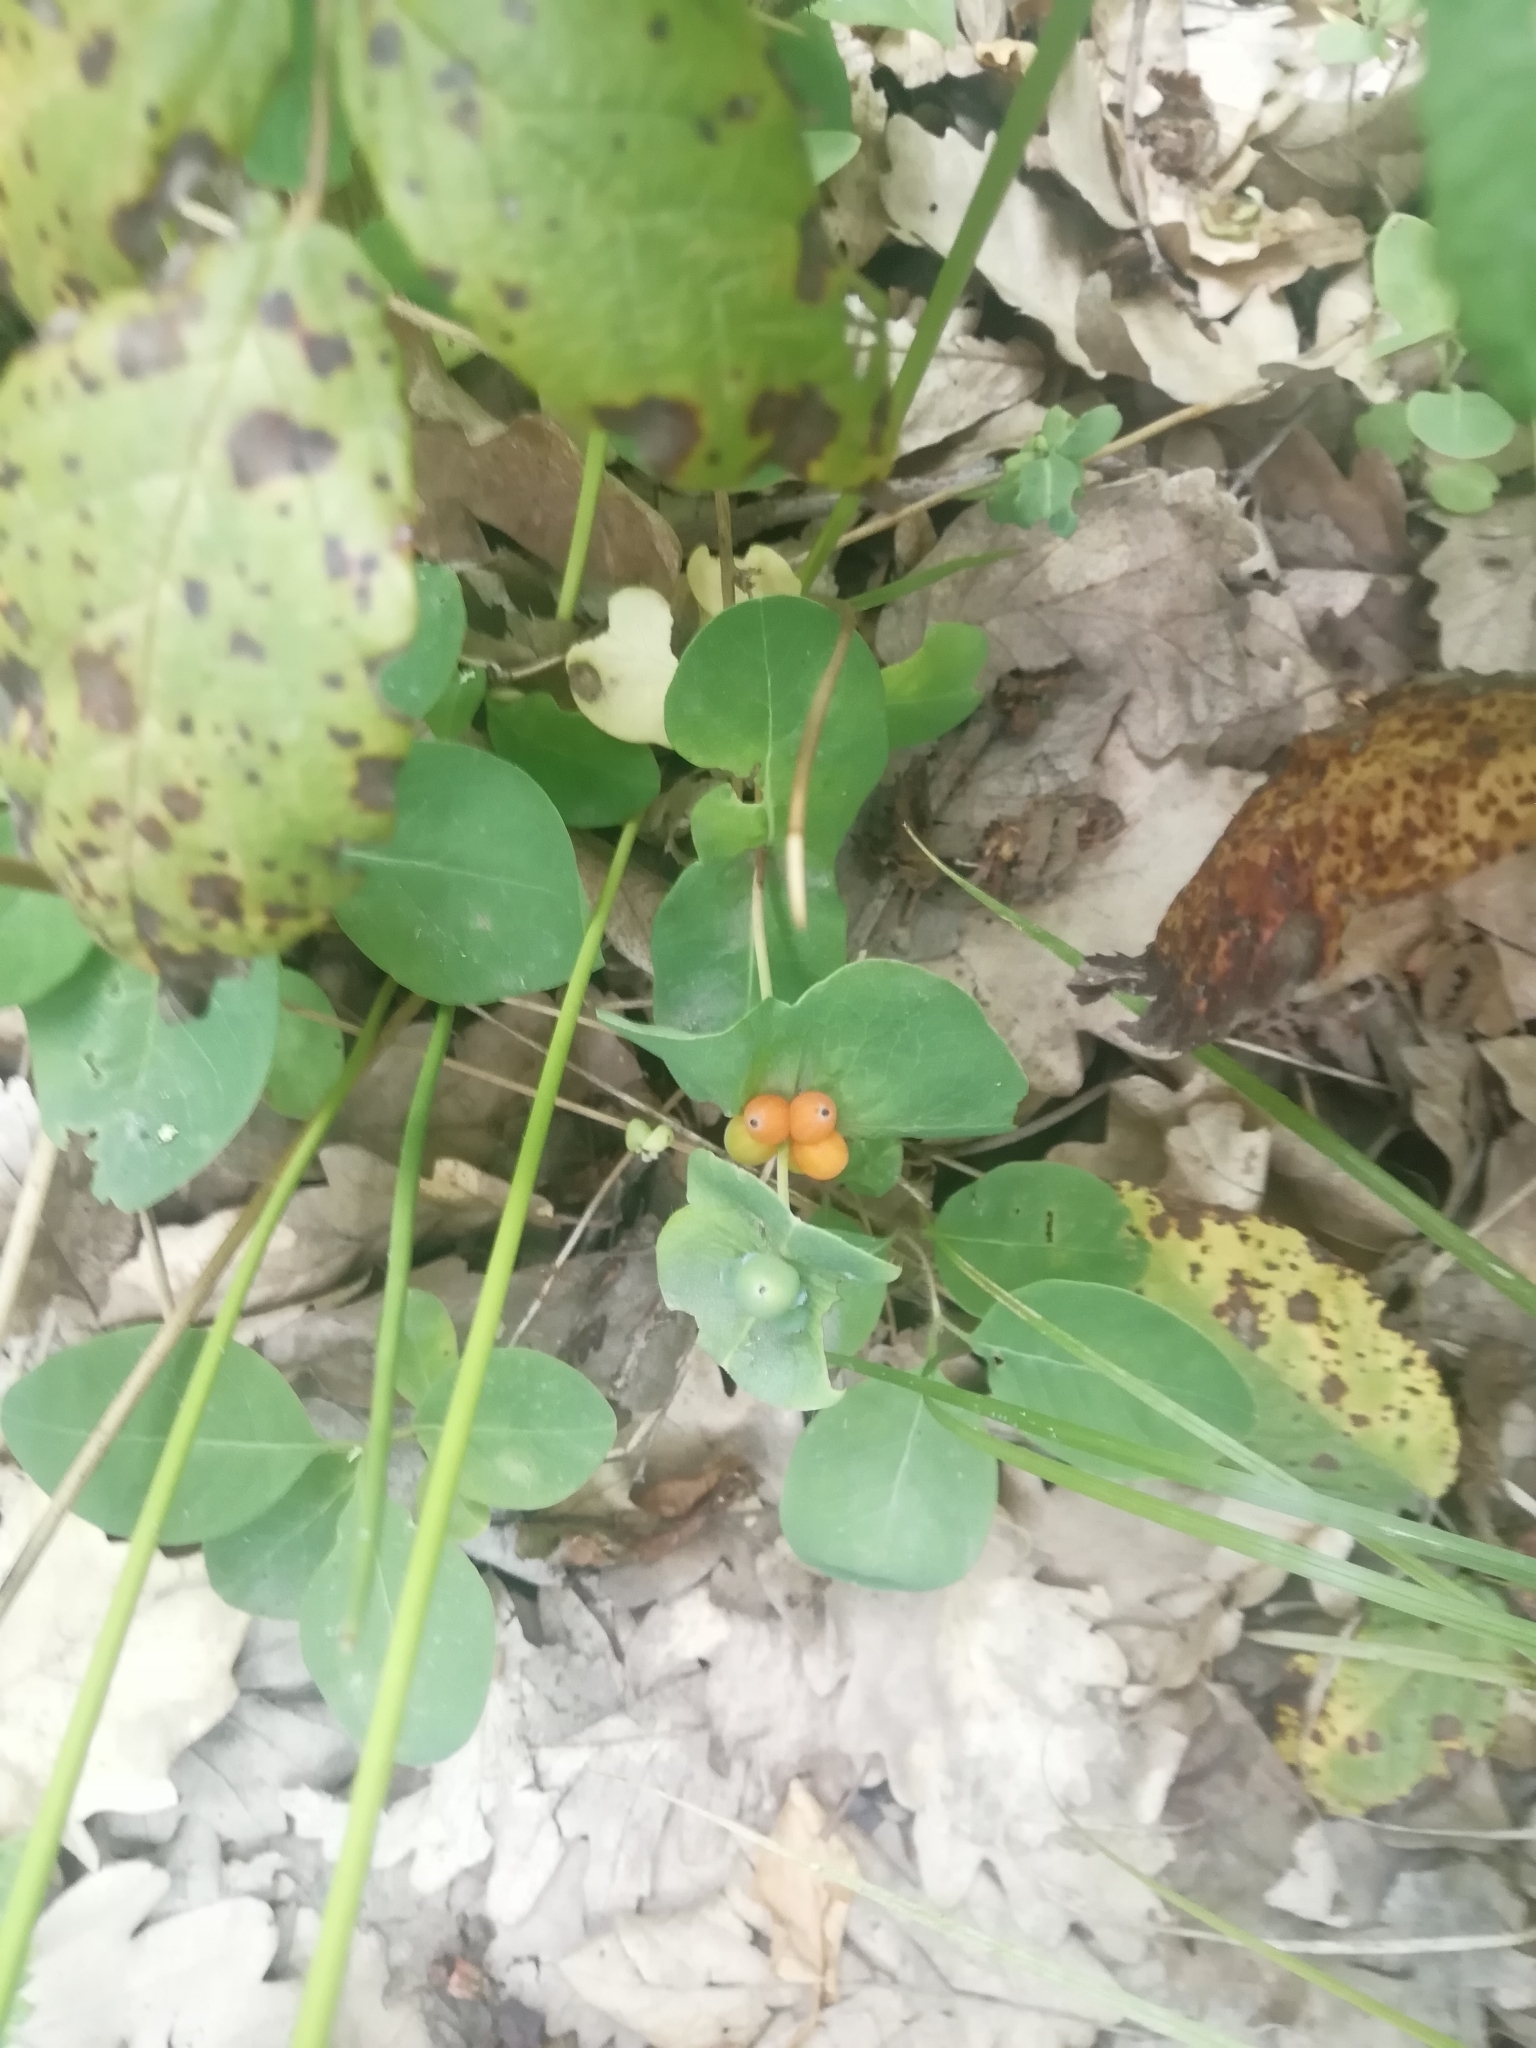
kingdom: Plantae
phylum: Tracheophyta
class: Magnoliopsida
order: Dipsacales
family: Caprifoliaceae
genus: Lonicera
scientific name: Lonicera caprifolium
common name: Perfoliate honeysuckle
